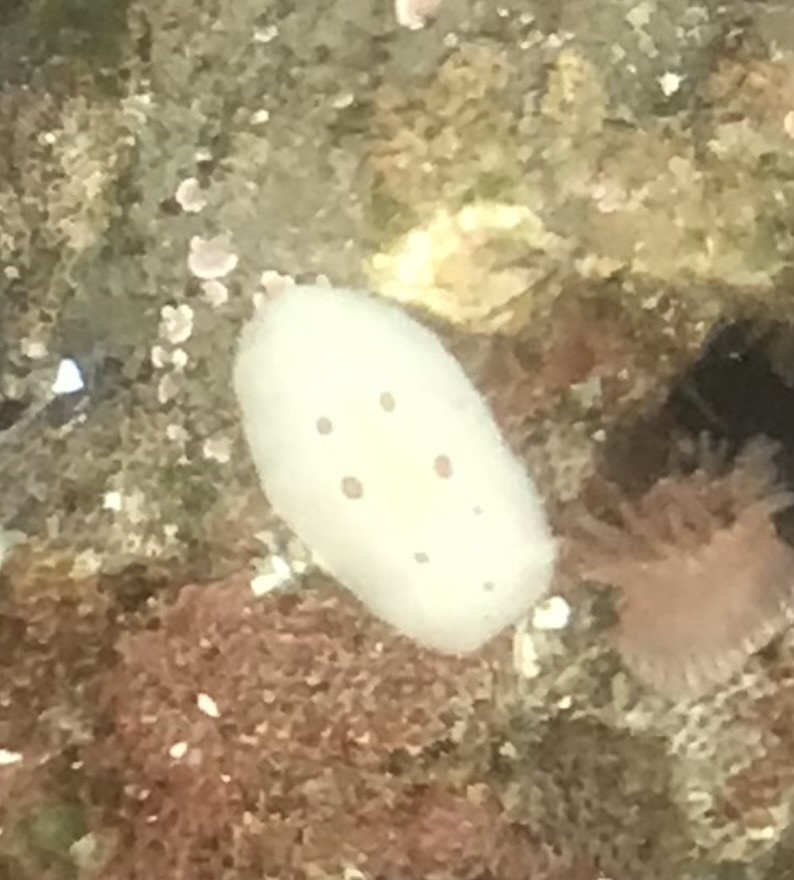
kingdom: Animalia
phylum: Mollusca
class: Gastropoda
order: Nudibranchia
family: Discodorididae
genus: Diaulula
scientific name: Diaulula sandiegensis
